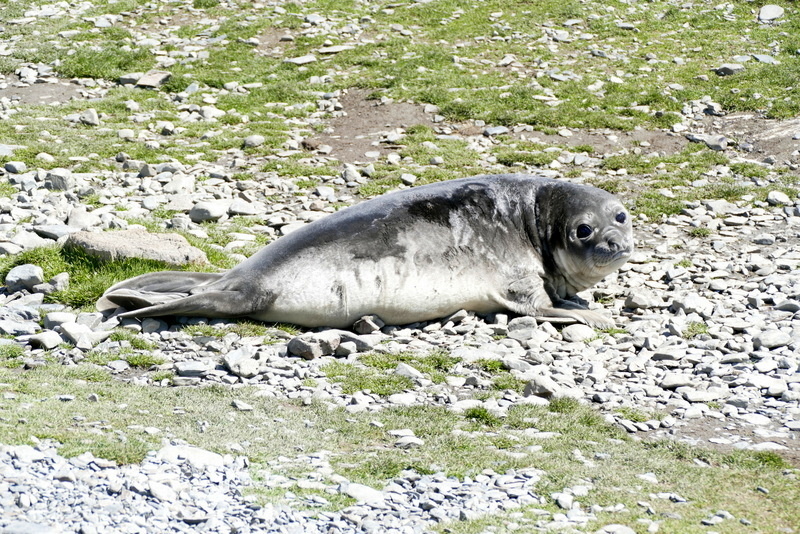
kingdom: Animalia
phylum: Chordata
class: Mammalia
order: Carnivora
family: Phocidae
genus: Mirounga
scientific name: Mirounga leonina
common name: Southern elephant seal
